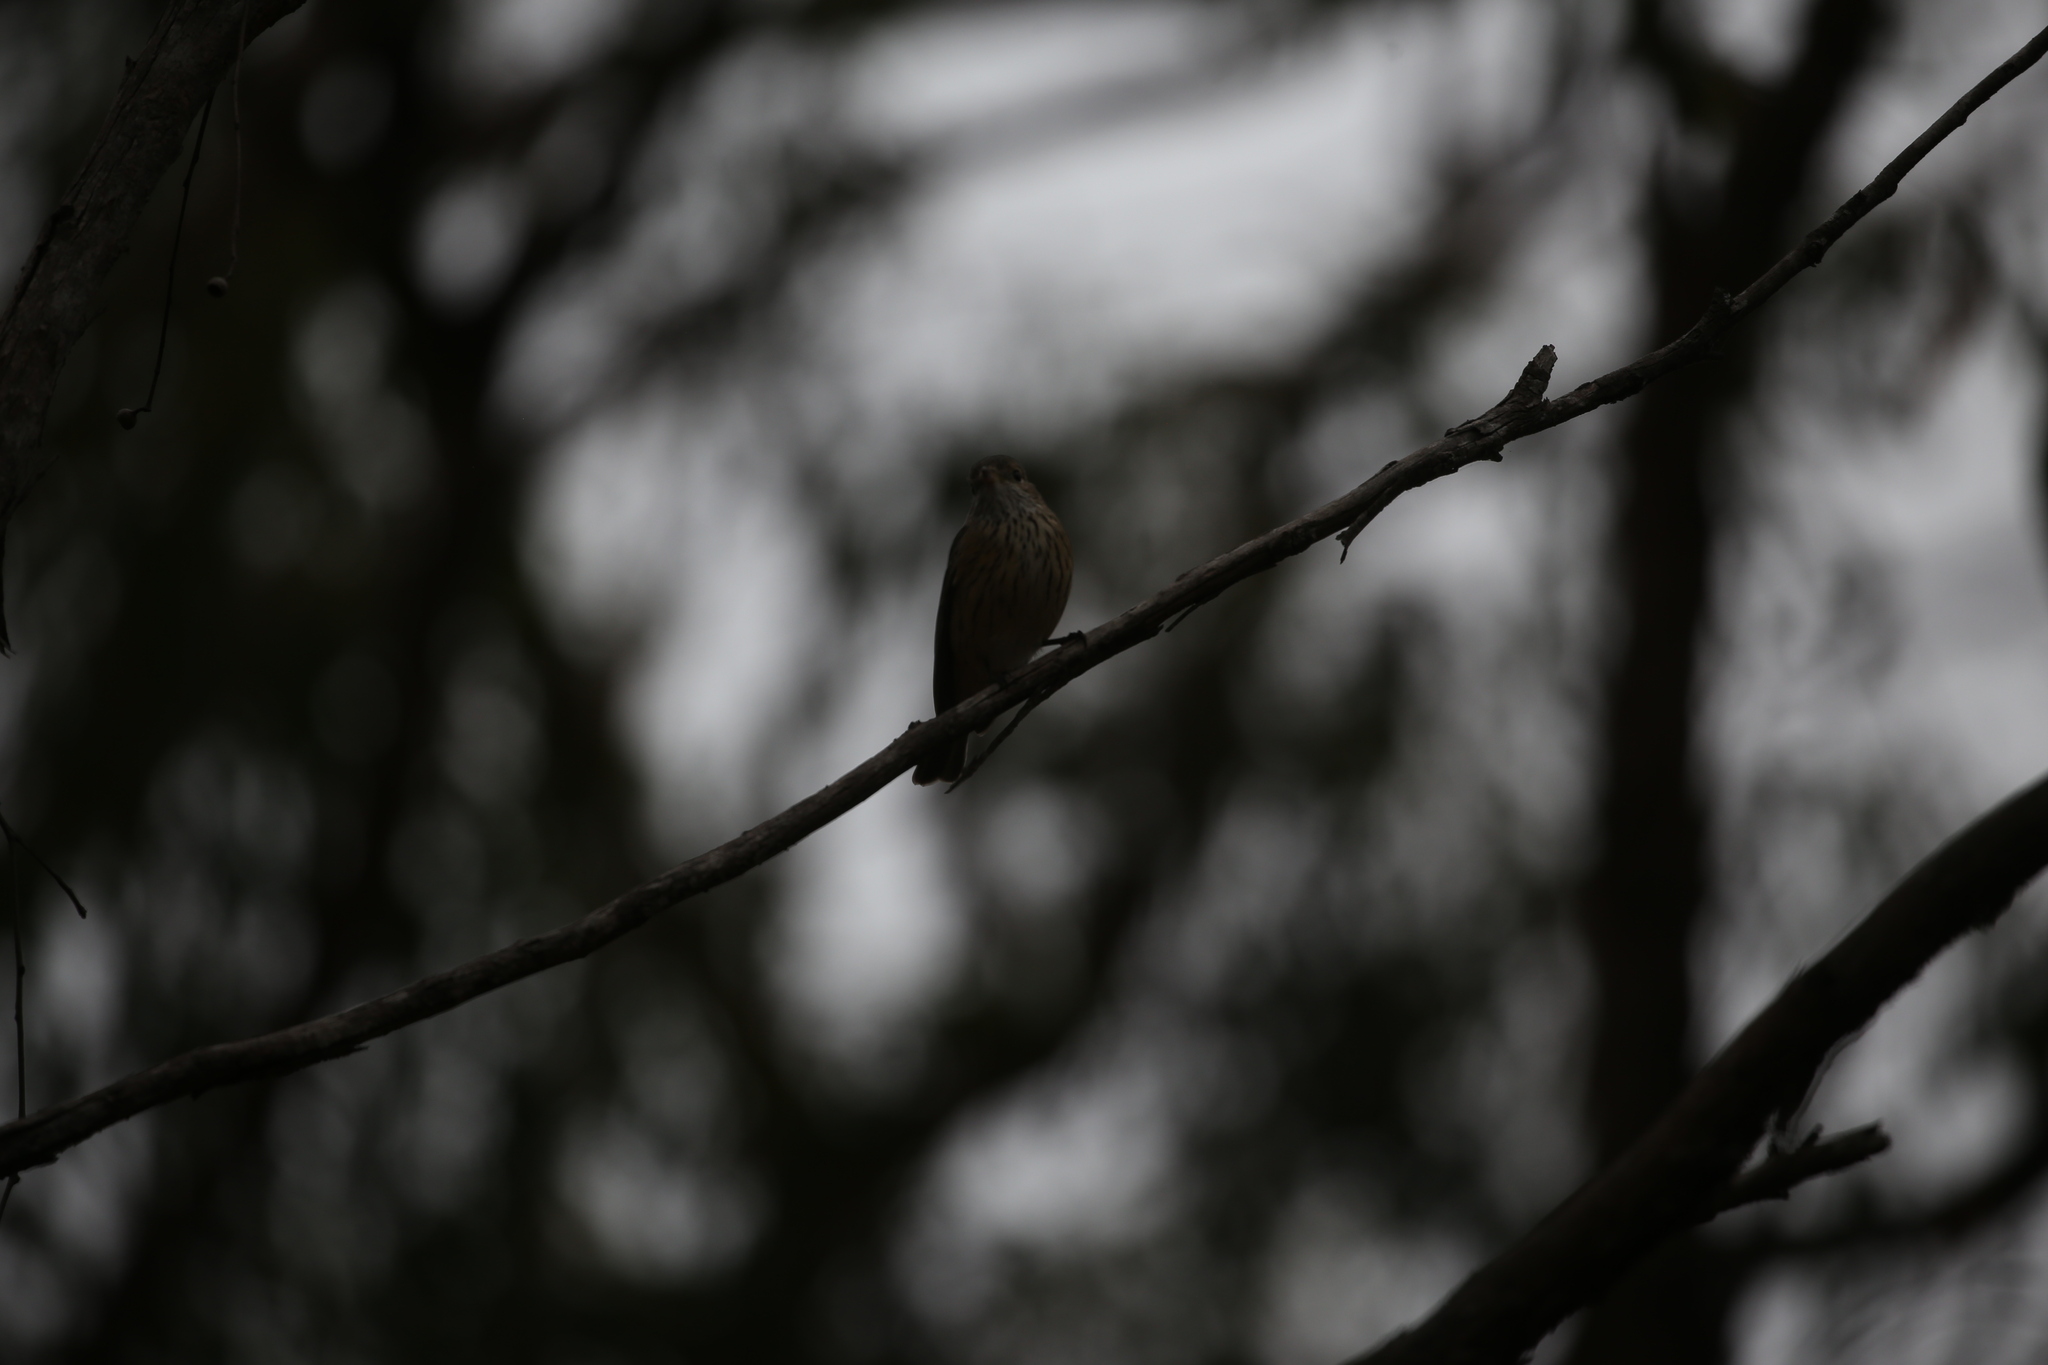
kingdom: Animalia
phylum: Chordata
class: Aves
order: Passeriformes
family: Pachycephalidae
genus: Pachycephala
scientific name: Pachycephala rufiventris
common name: Rufous whistler
